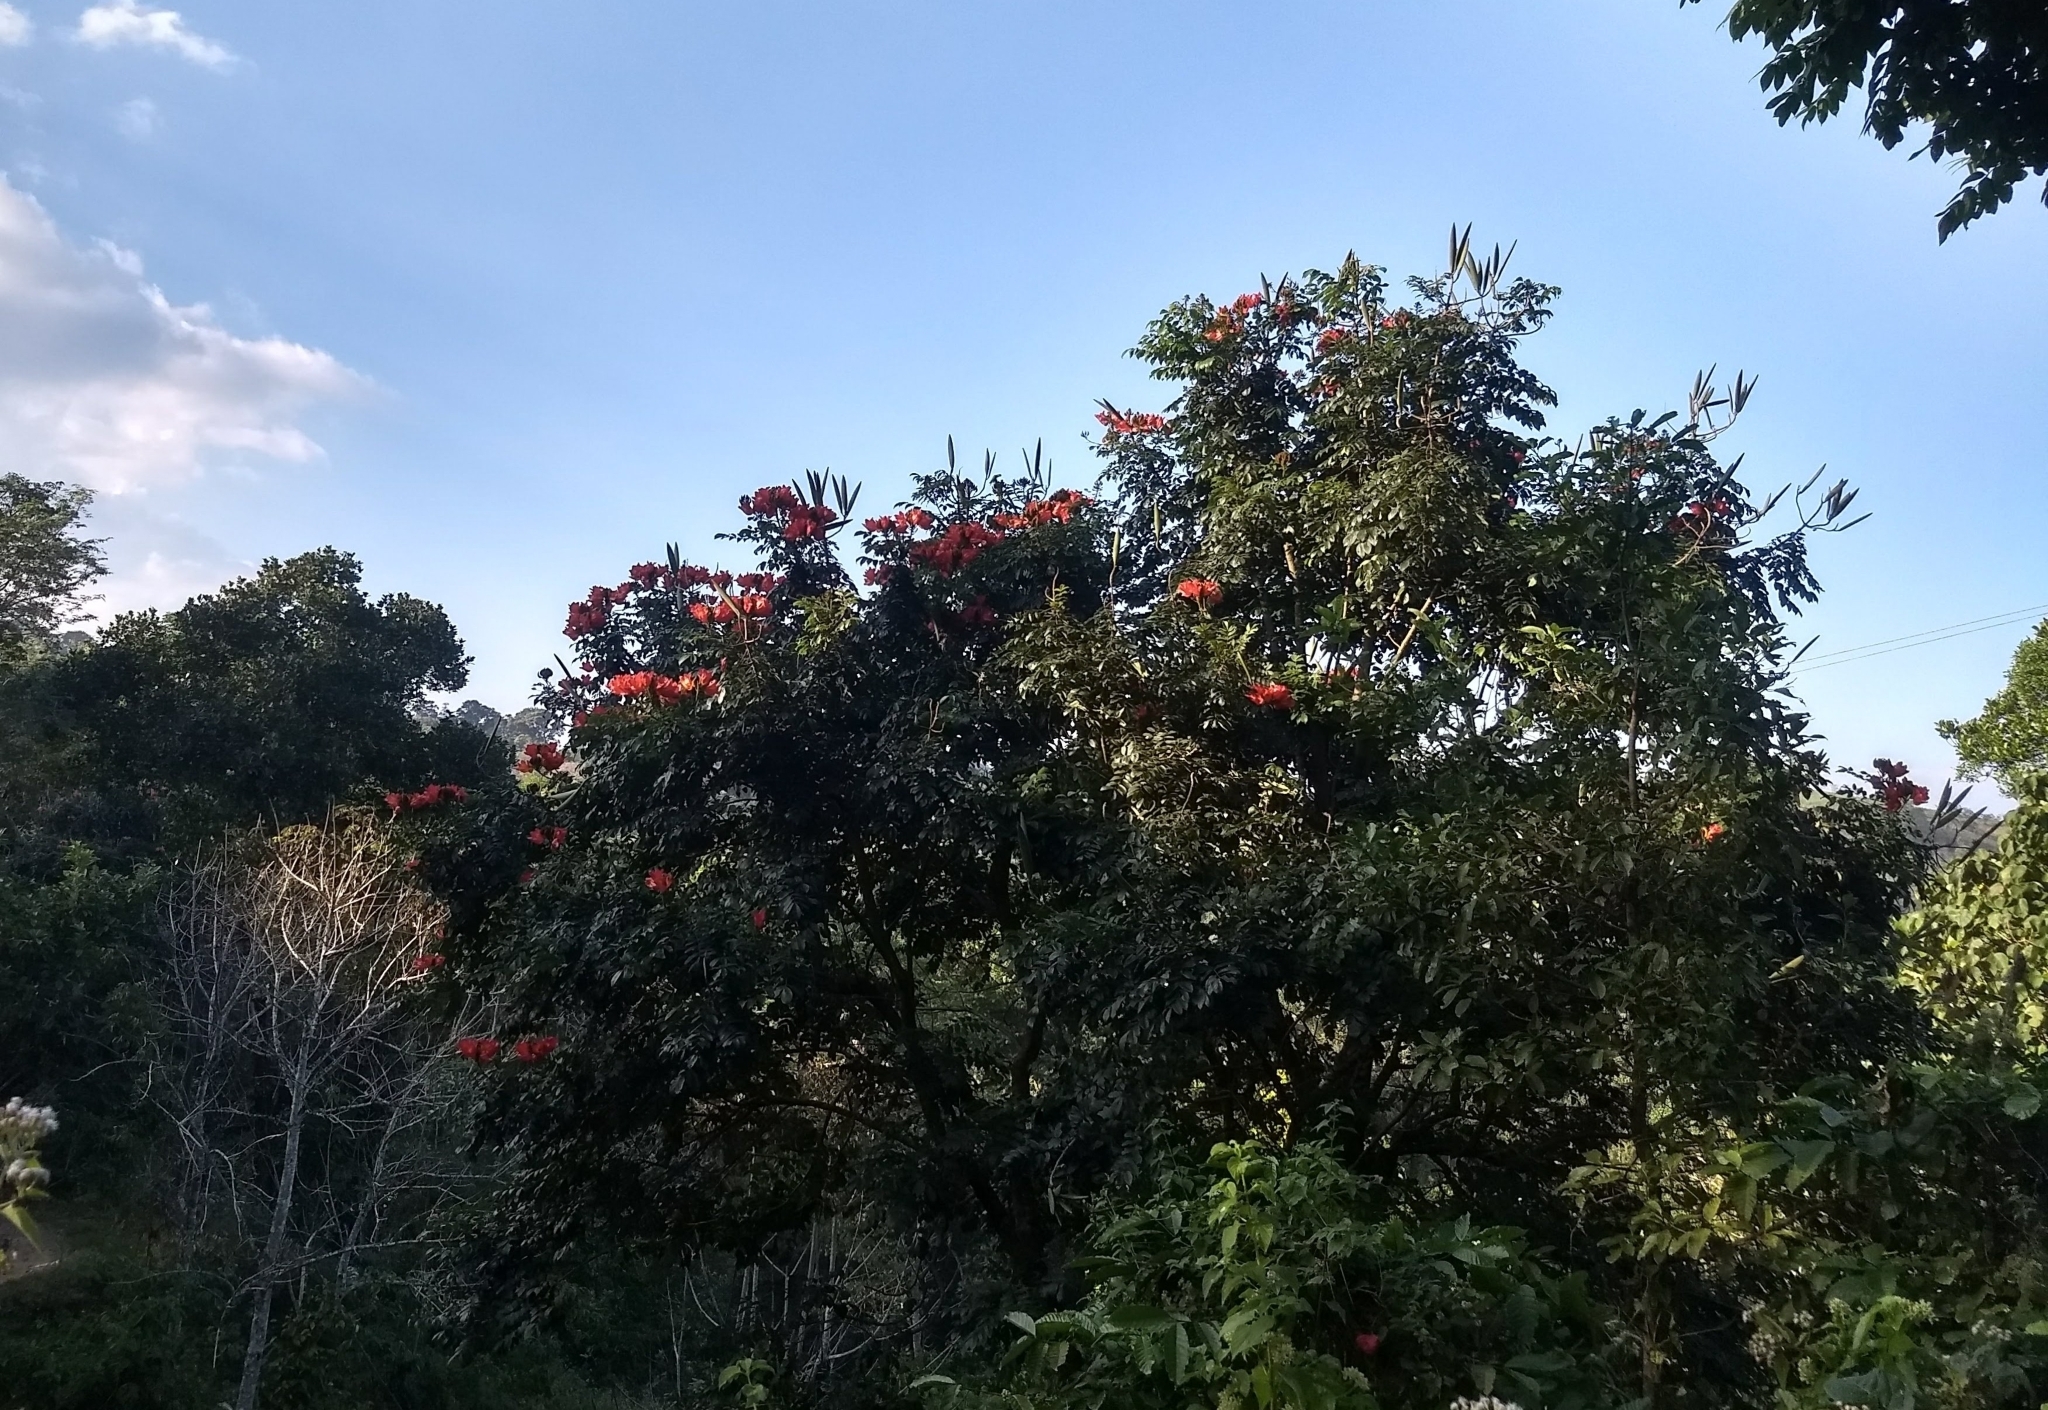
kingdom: Plantae
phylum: Tracheophyta
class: Magnoliopsida
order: Lamiales
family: Bignoniaceae
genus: Spathodea
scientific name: Spathodea campanulata
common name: African tuliptree
